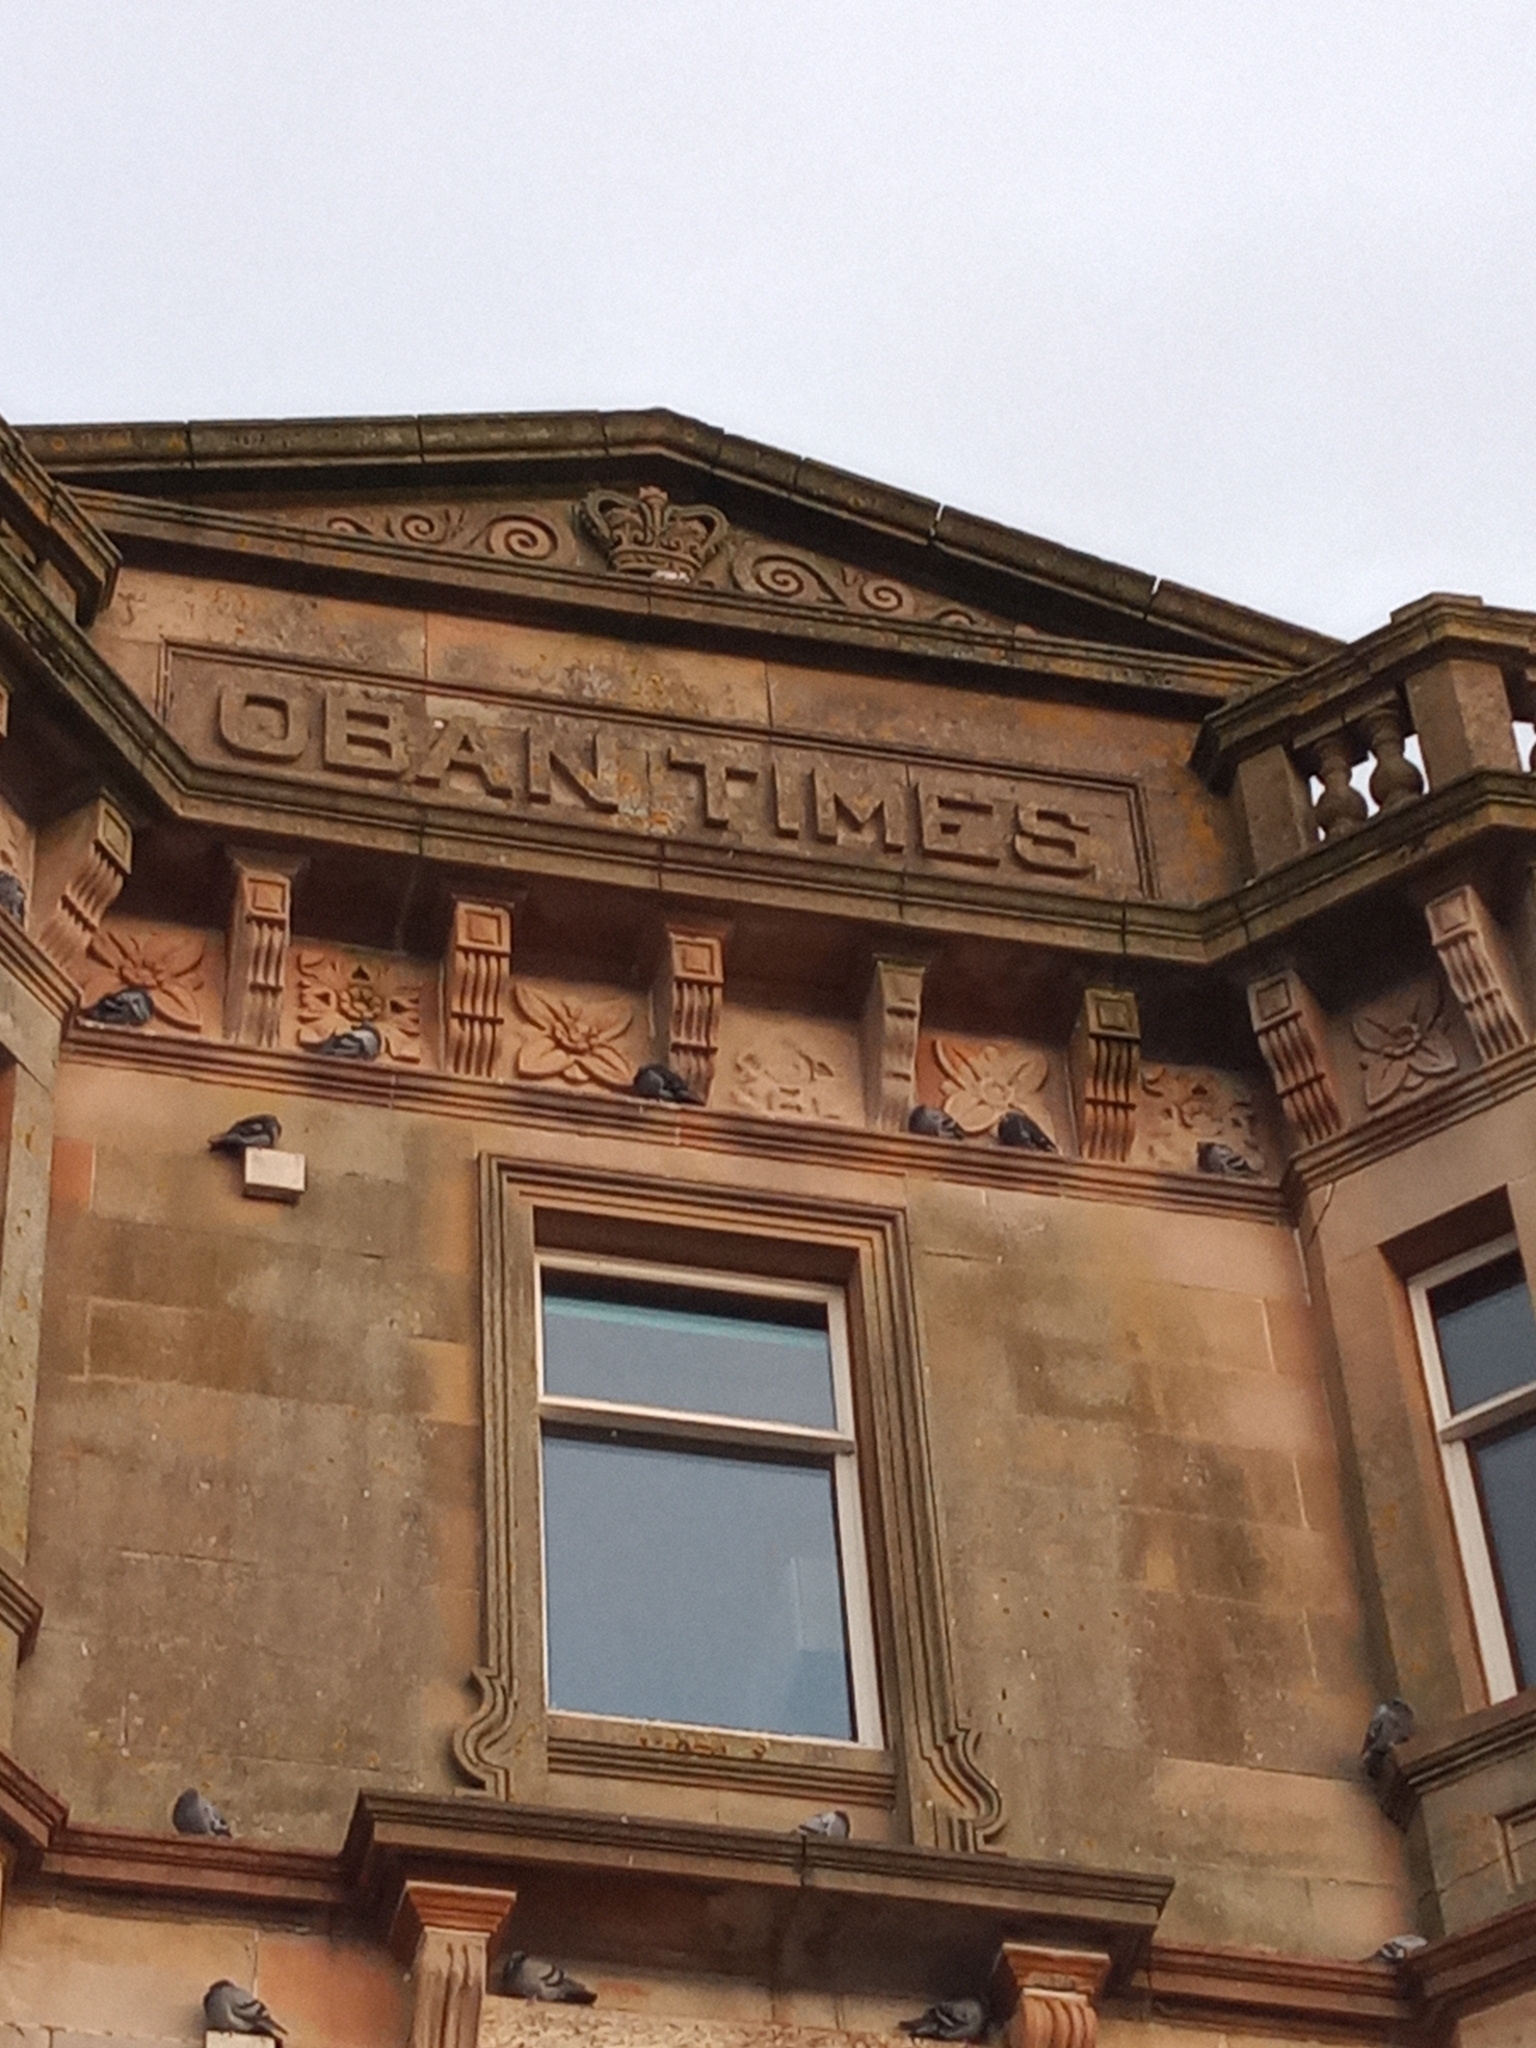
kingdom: Animalia
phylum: Chordata
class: Aves
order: Columbiformes
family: Columbidae
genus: Columba
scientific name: Columba livia
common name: Rock pigeon
